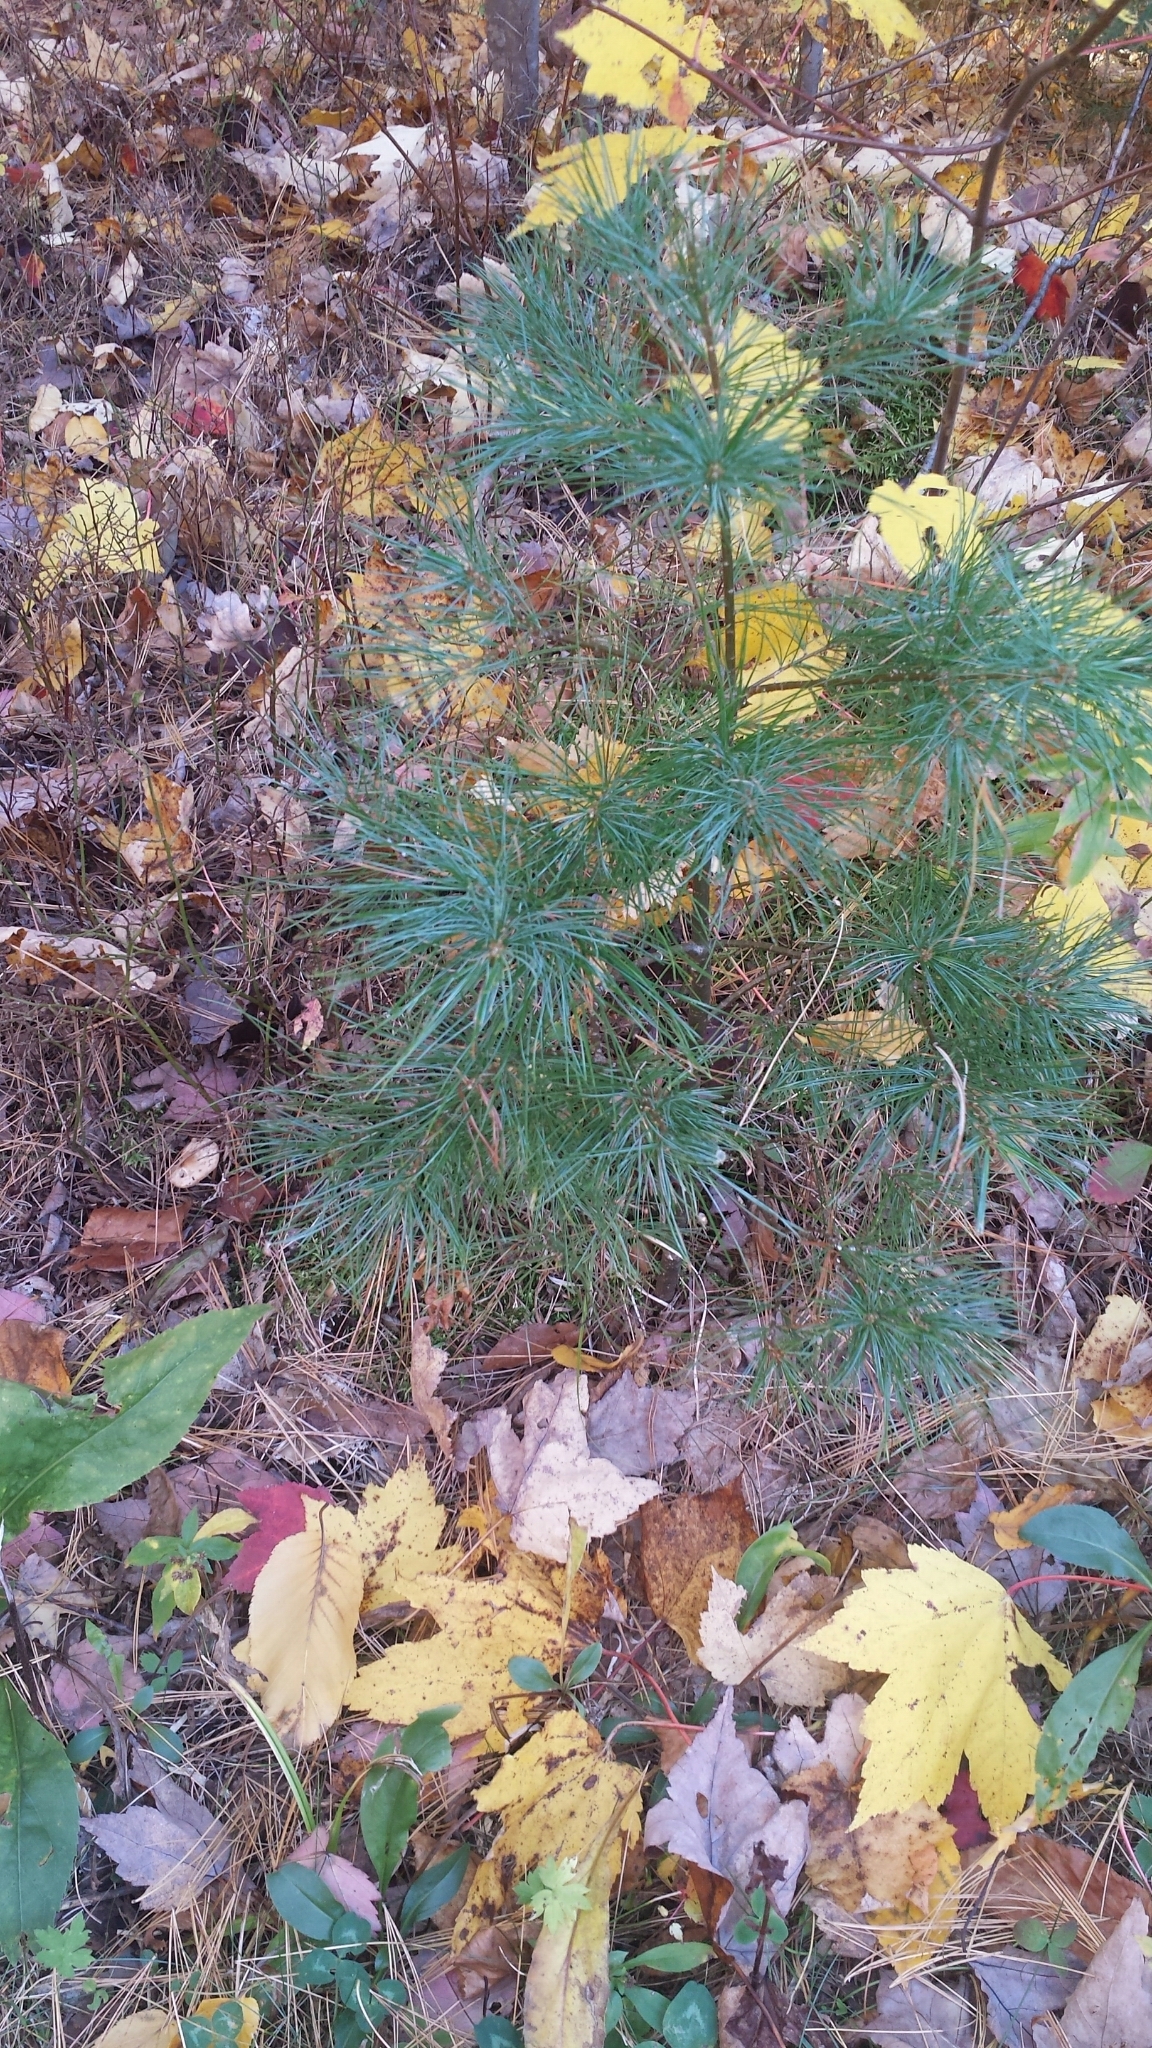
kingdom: Plantae
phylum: Tracheophyta
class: Pinopsida
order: Pinales
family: Pinaceae
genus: Pinus
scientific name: Pinus strobus
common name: Weymouth pine
